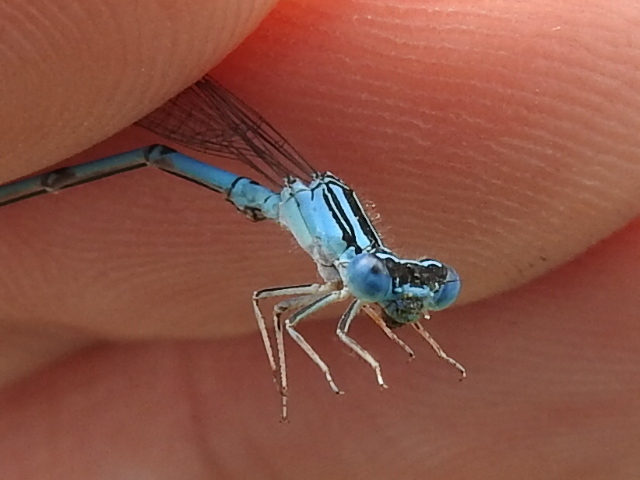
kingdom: Animalia
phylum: Arthropoda
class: Insecta
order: Odonata
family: Coenagrionidae
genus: Enallagma
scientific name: Enallagma basidens
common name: Double-striped bluet
